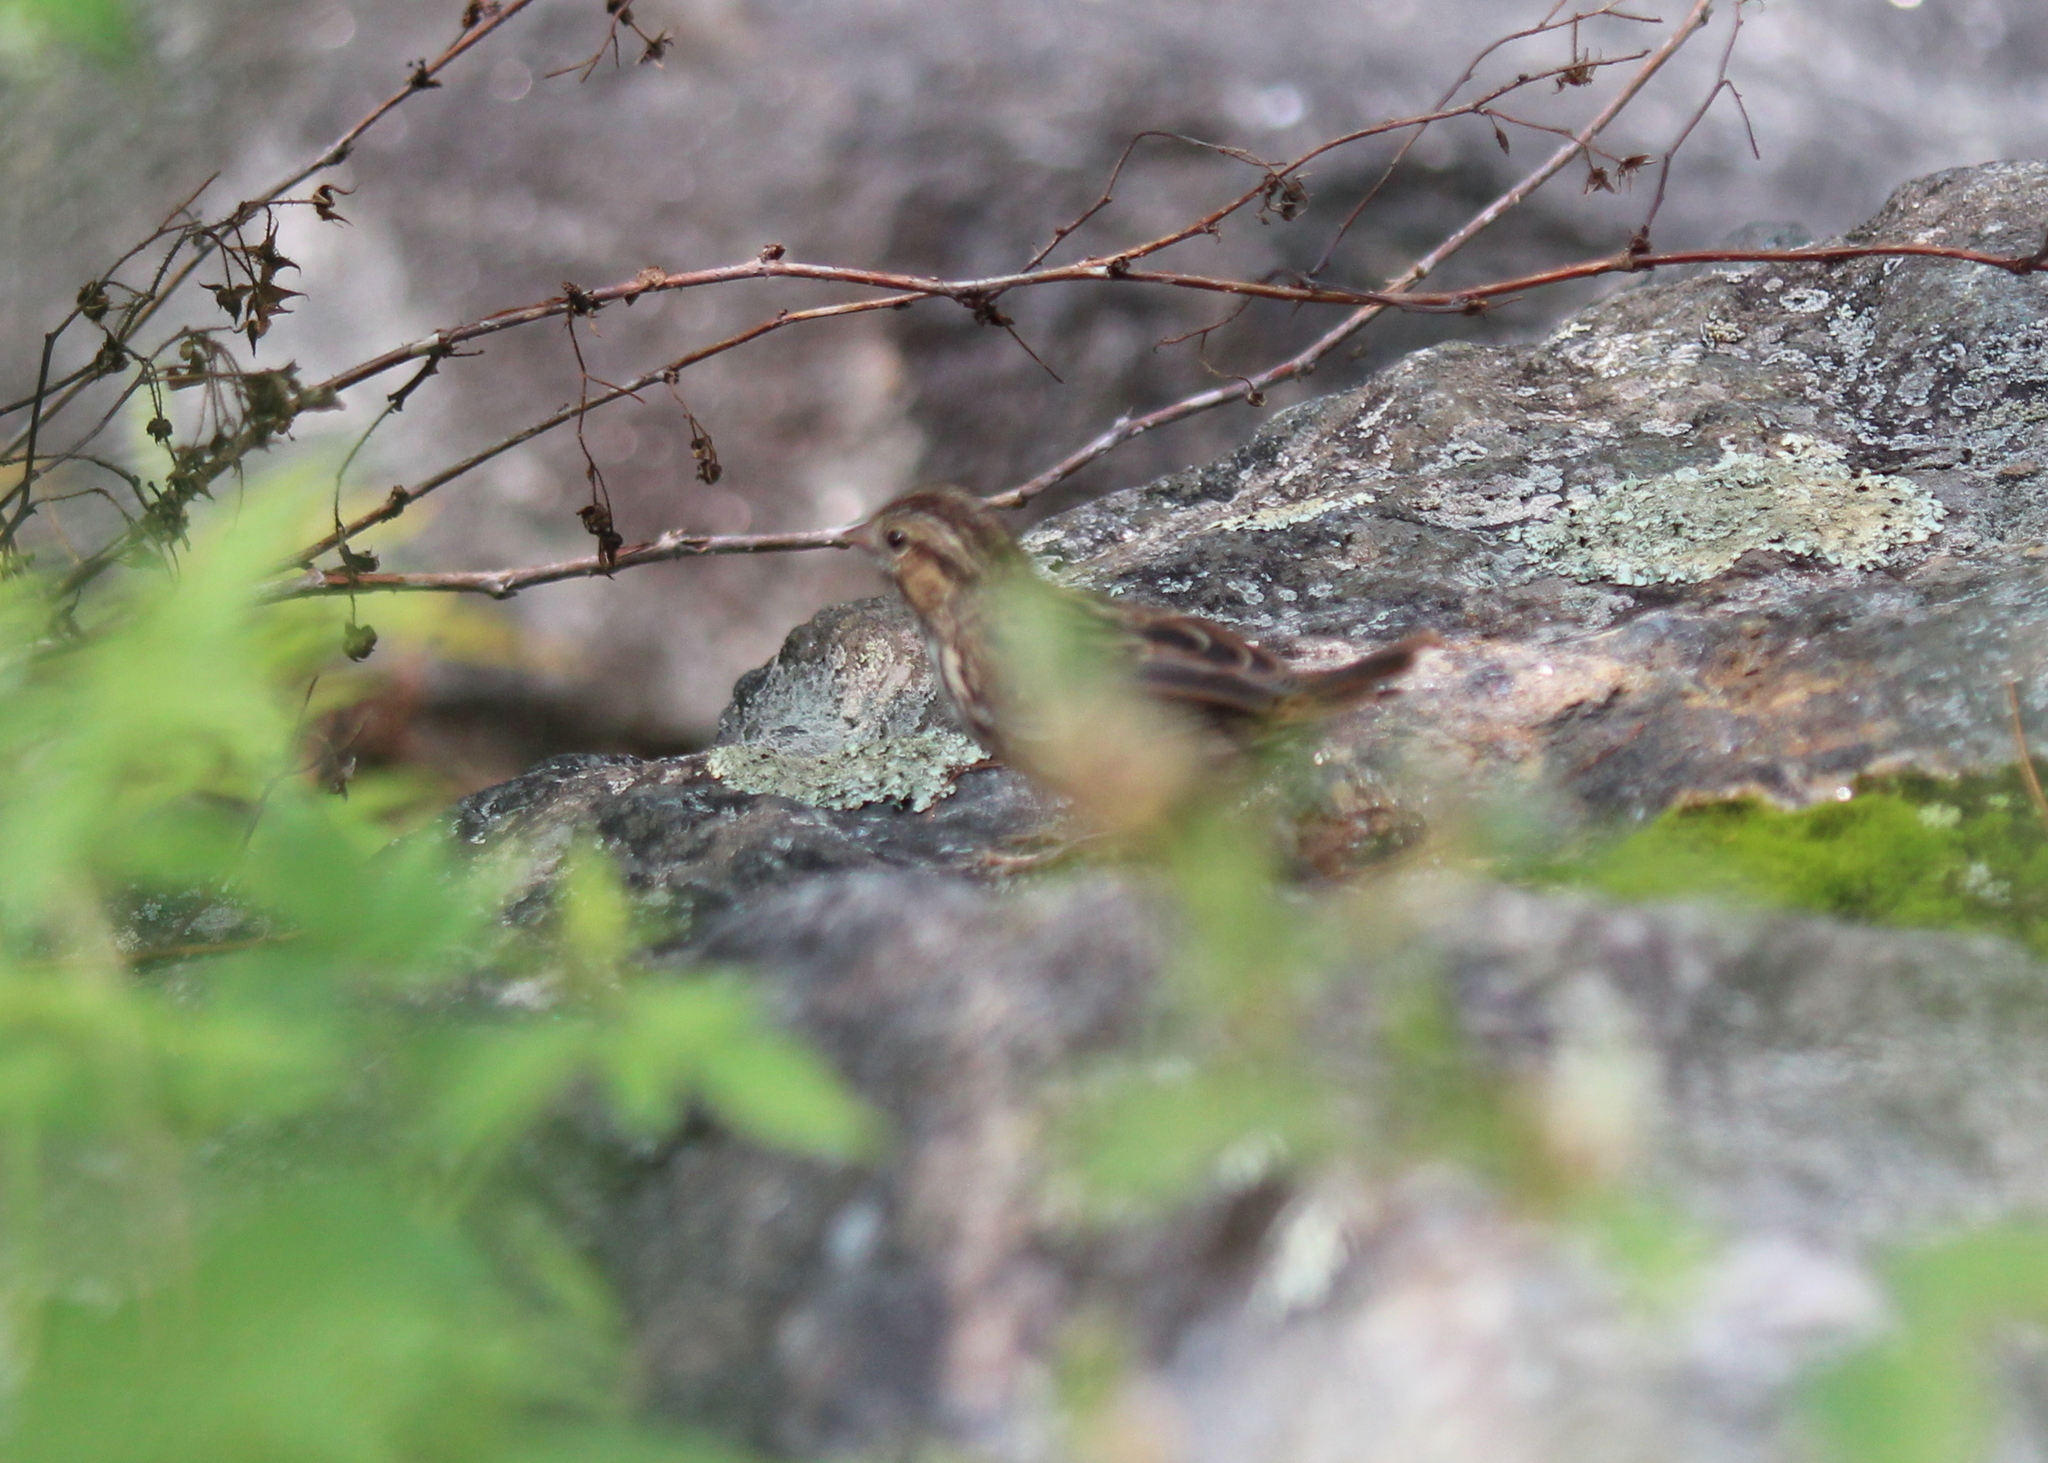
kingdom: Animalia
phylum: Chordata
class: Aves
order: Passeriformes
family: Passerellidae
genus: Melospiza
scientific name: Melospiza melodia
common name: Song sparrow
